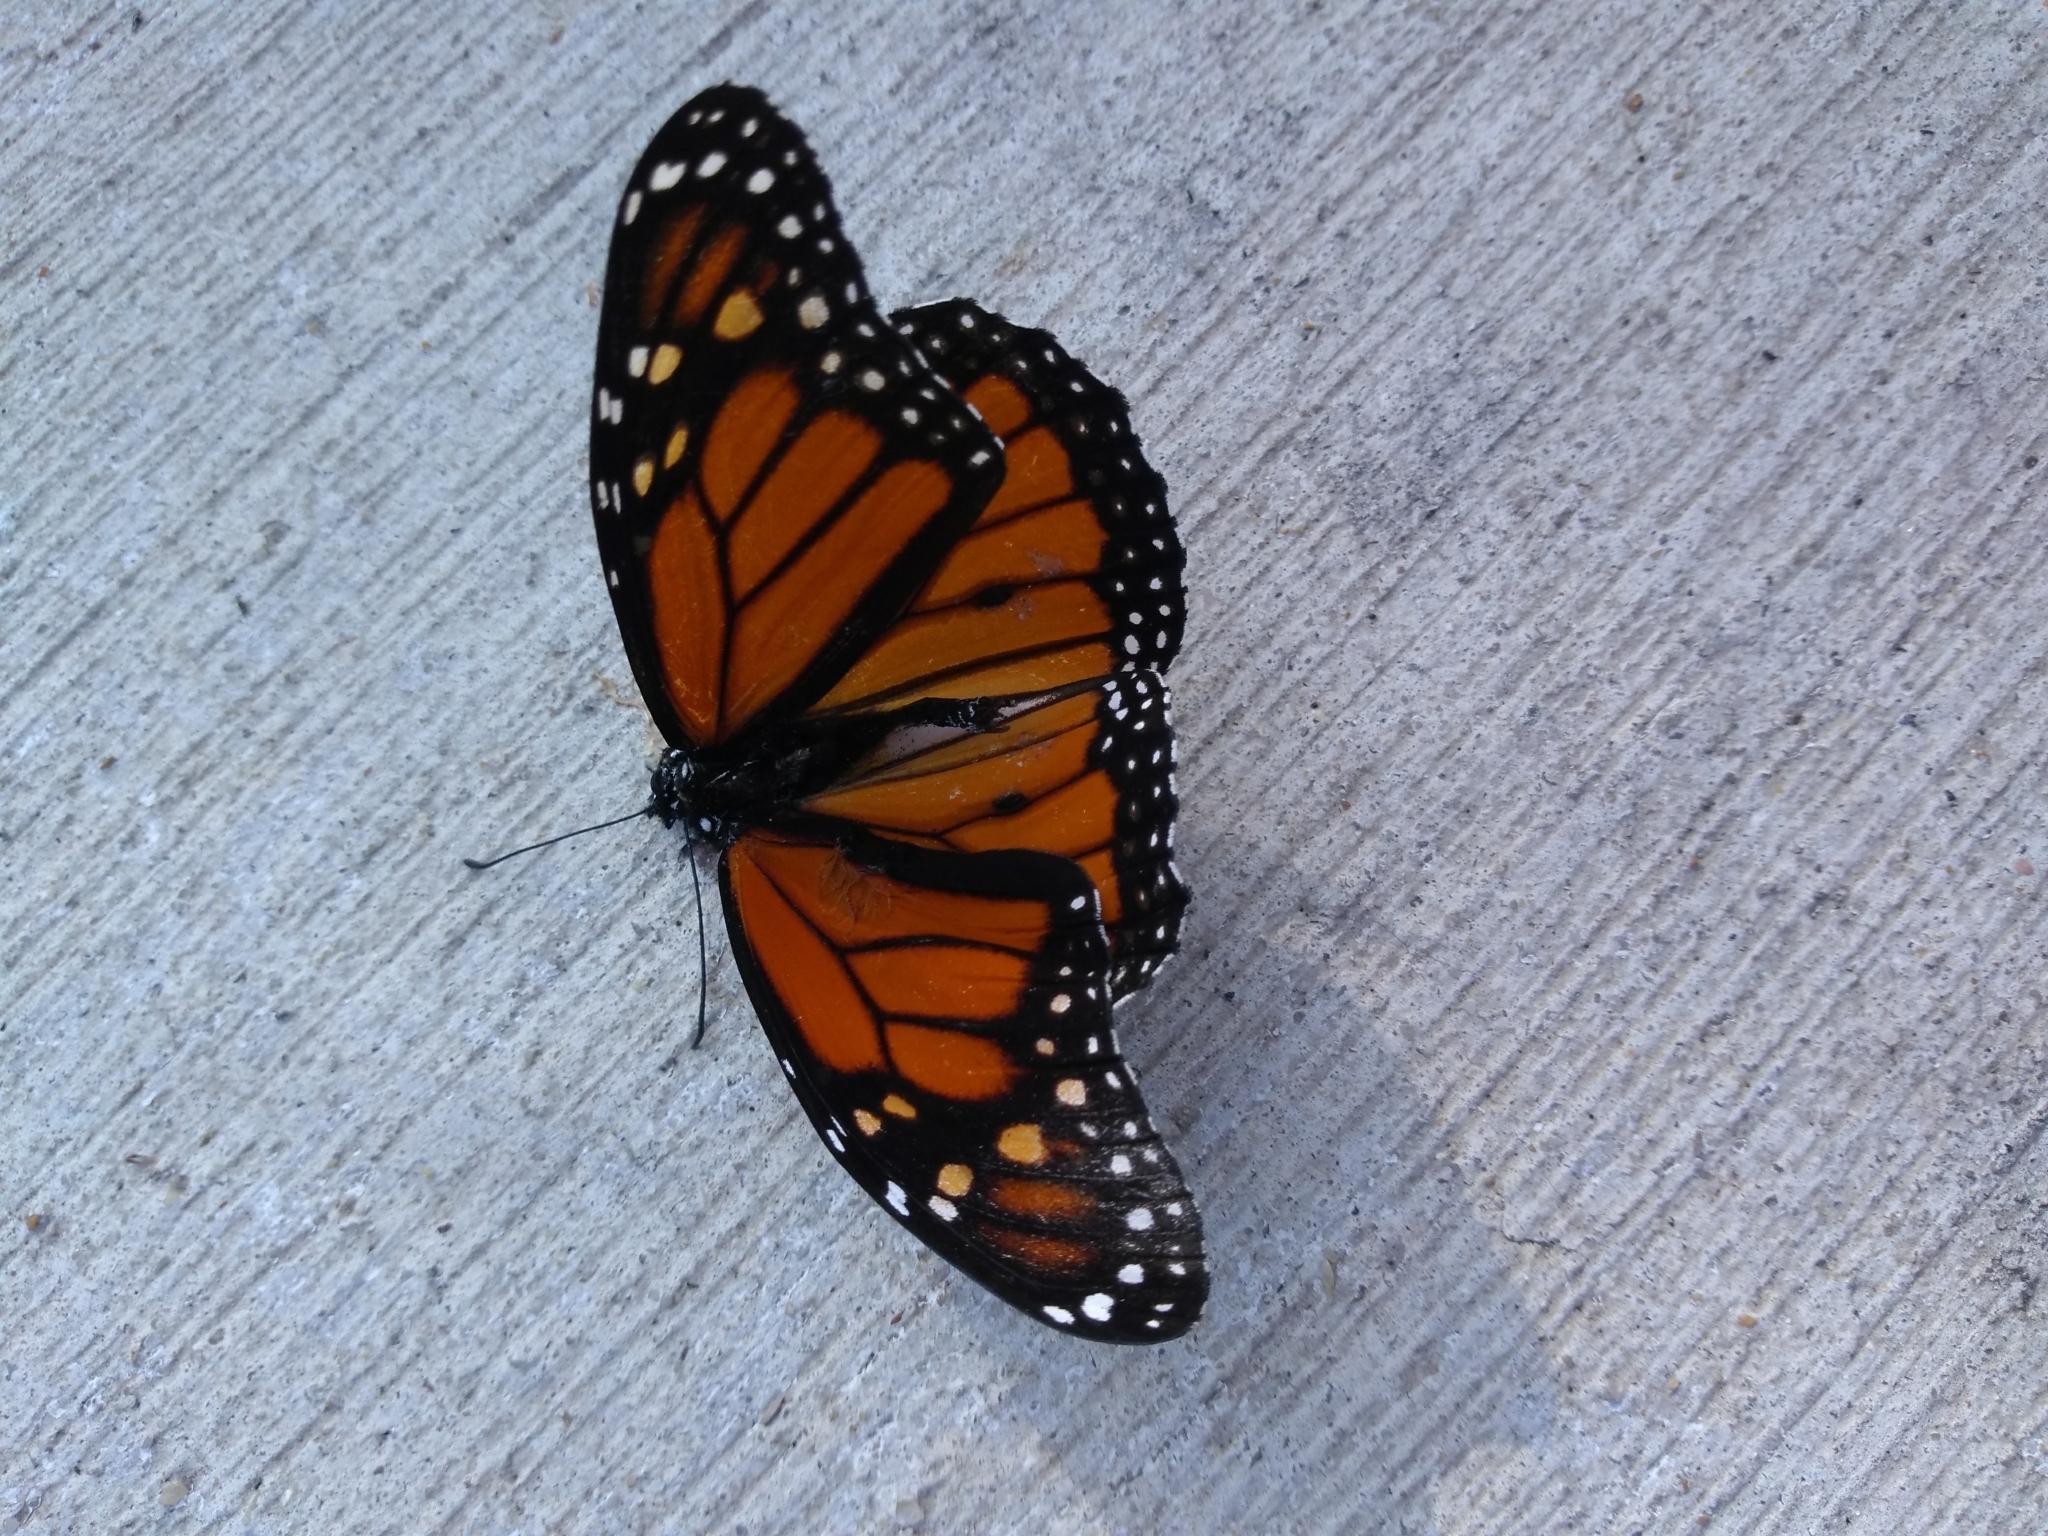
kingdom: Animalia
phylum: Arthropoda
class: Insecta
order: Lepidoptera
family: Nymphalidae
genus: Danaus
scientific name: Danaus plexippus
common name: Monarch
